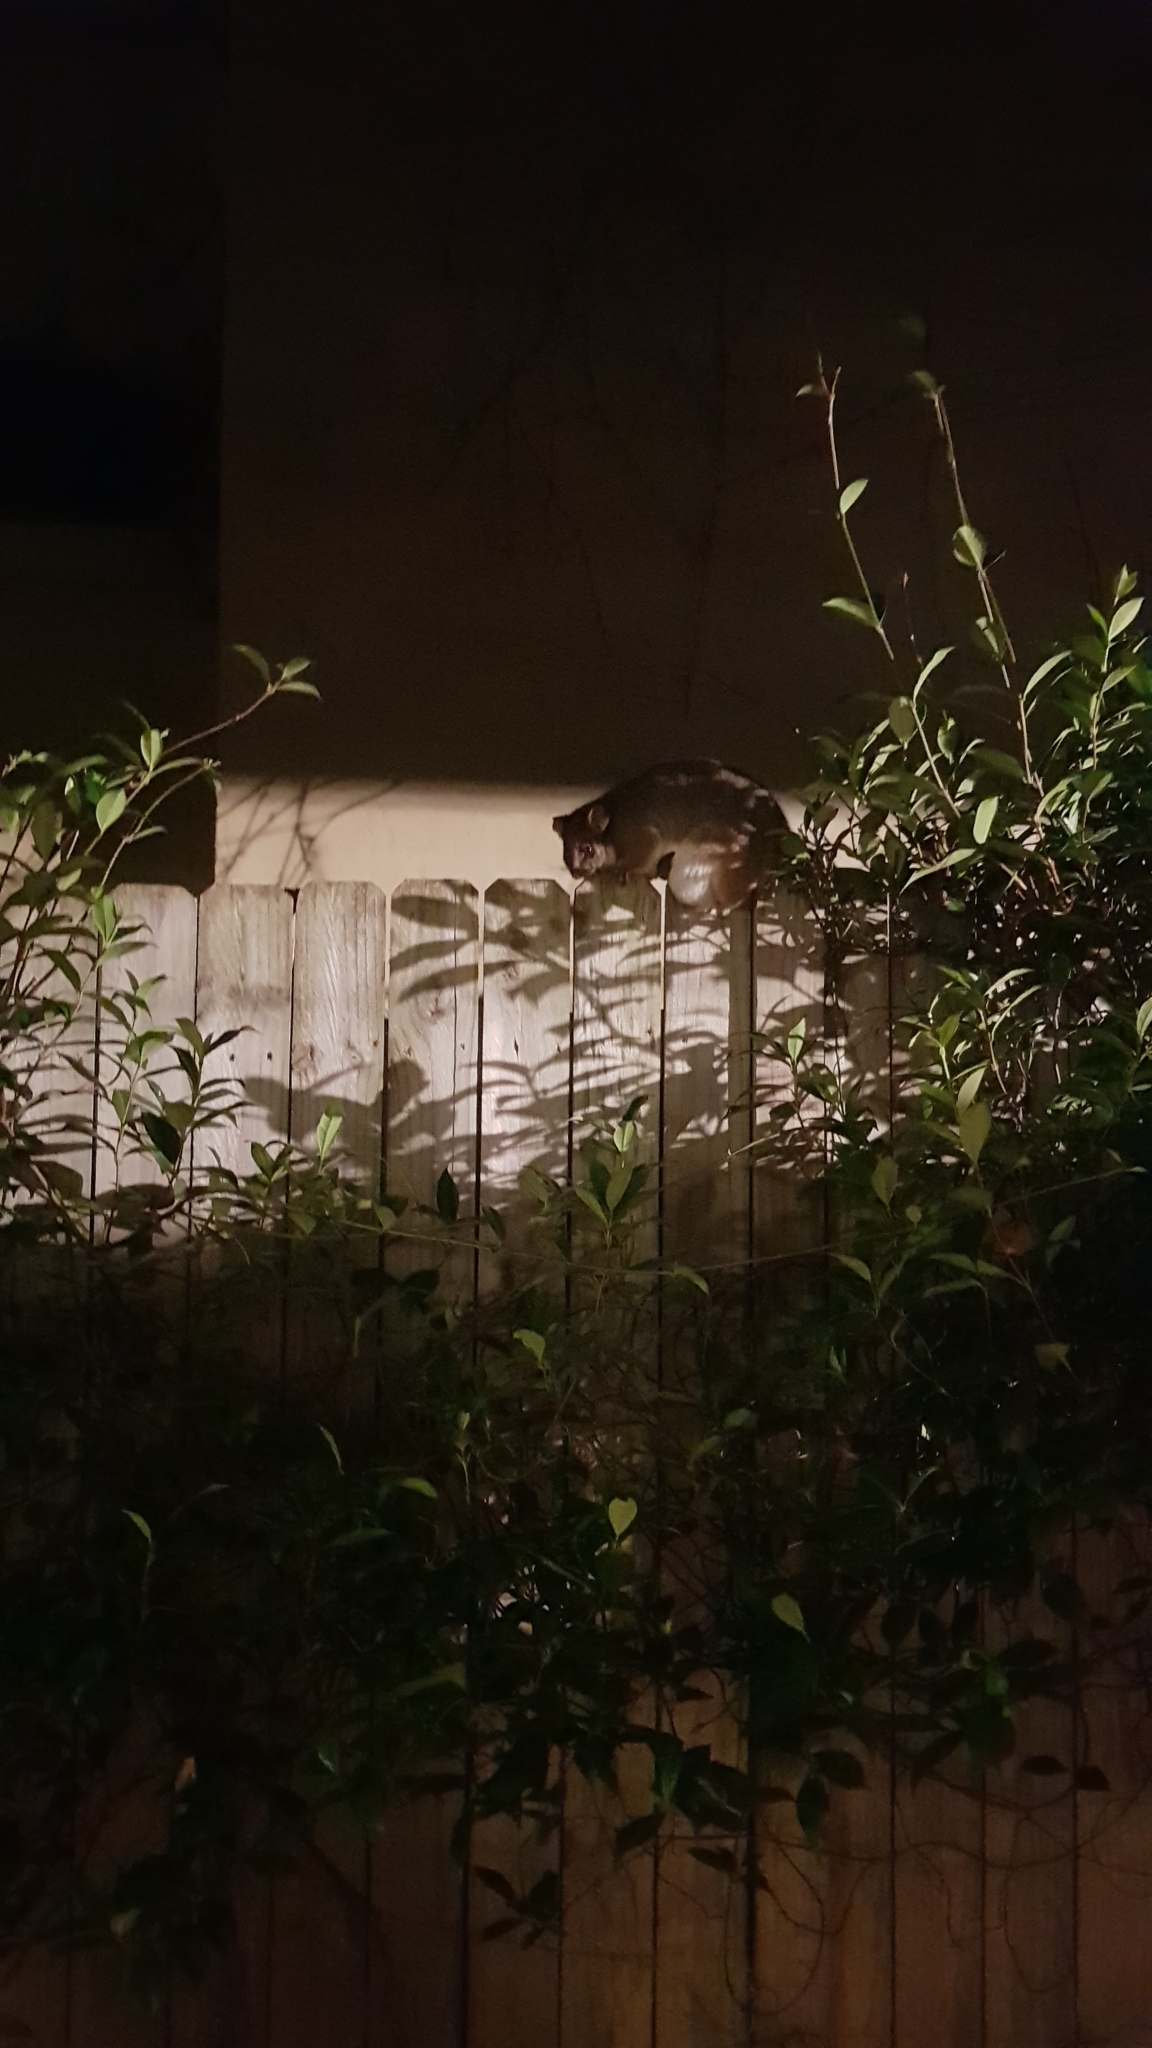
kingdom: Animalia
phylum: Chordata
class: Mammalia
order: Diprotodontia
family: Pseudocheiridae
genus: Pseudocheirus
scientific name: Pseudocheirus peregrinus
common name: Common ringtail possum
